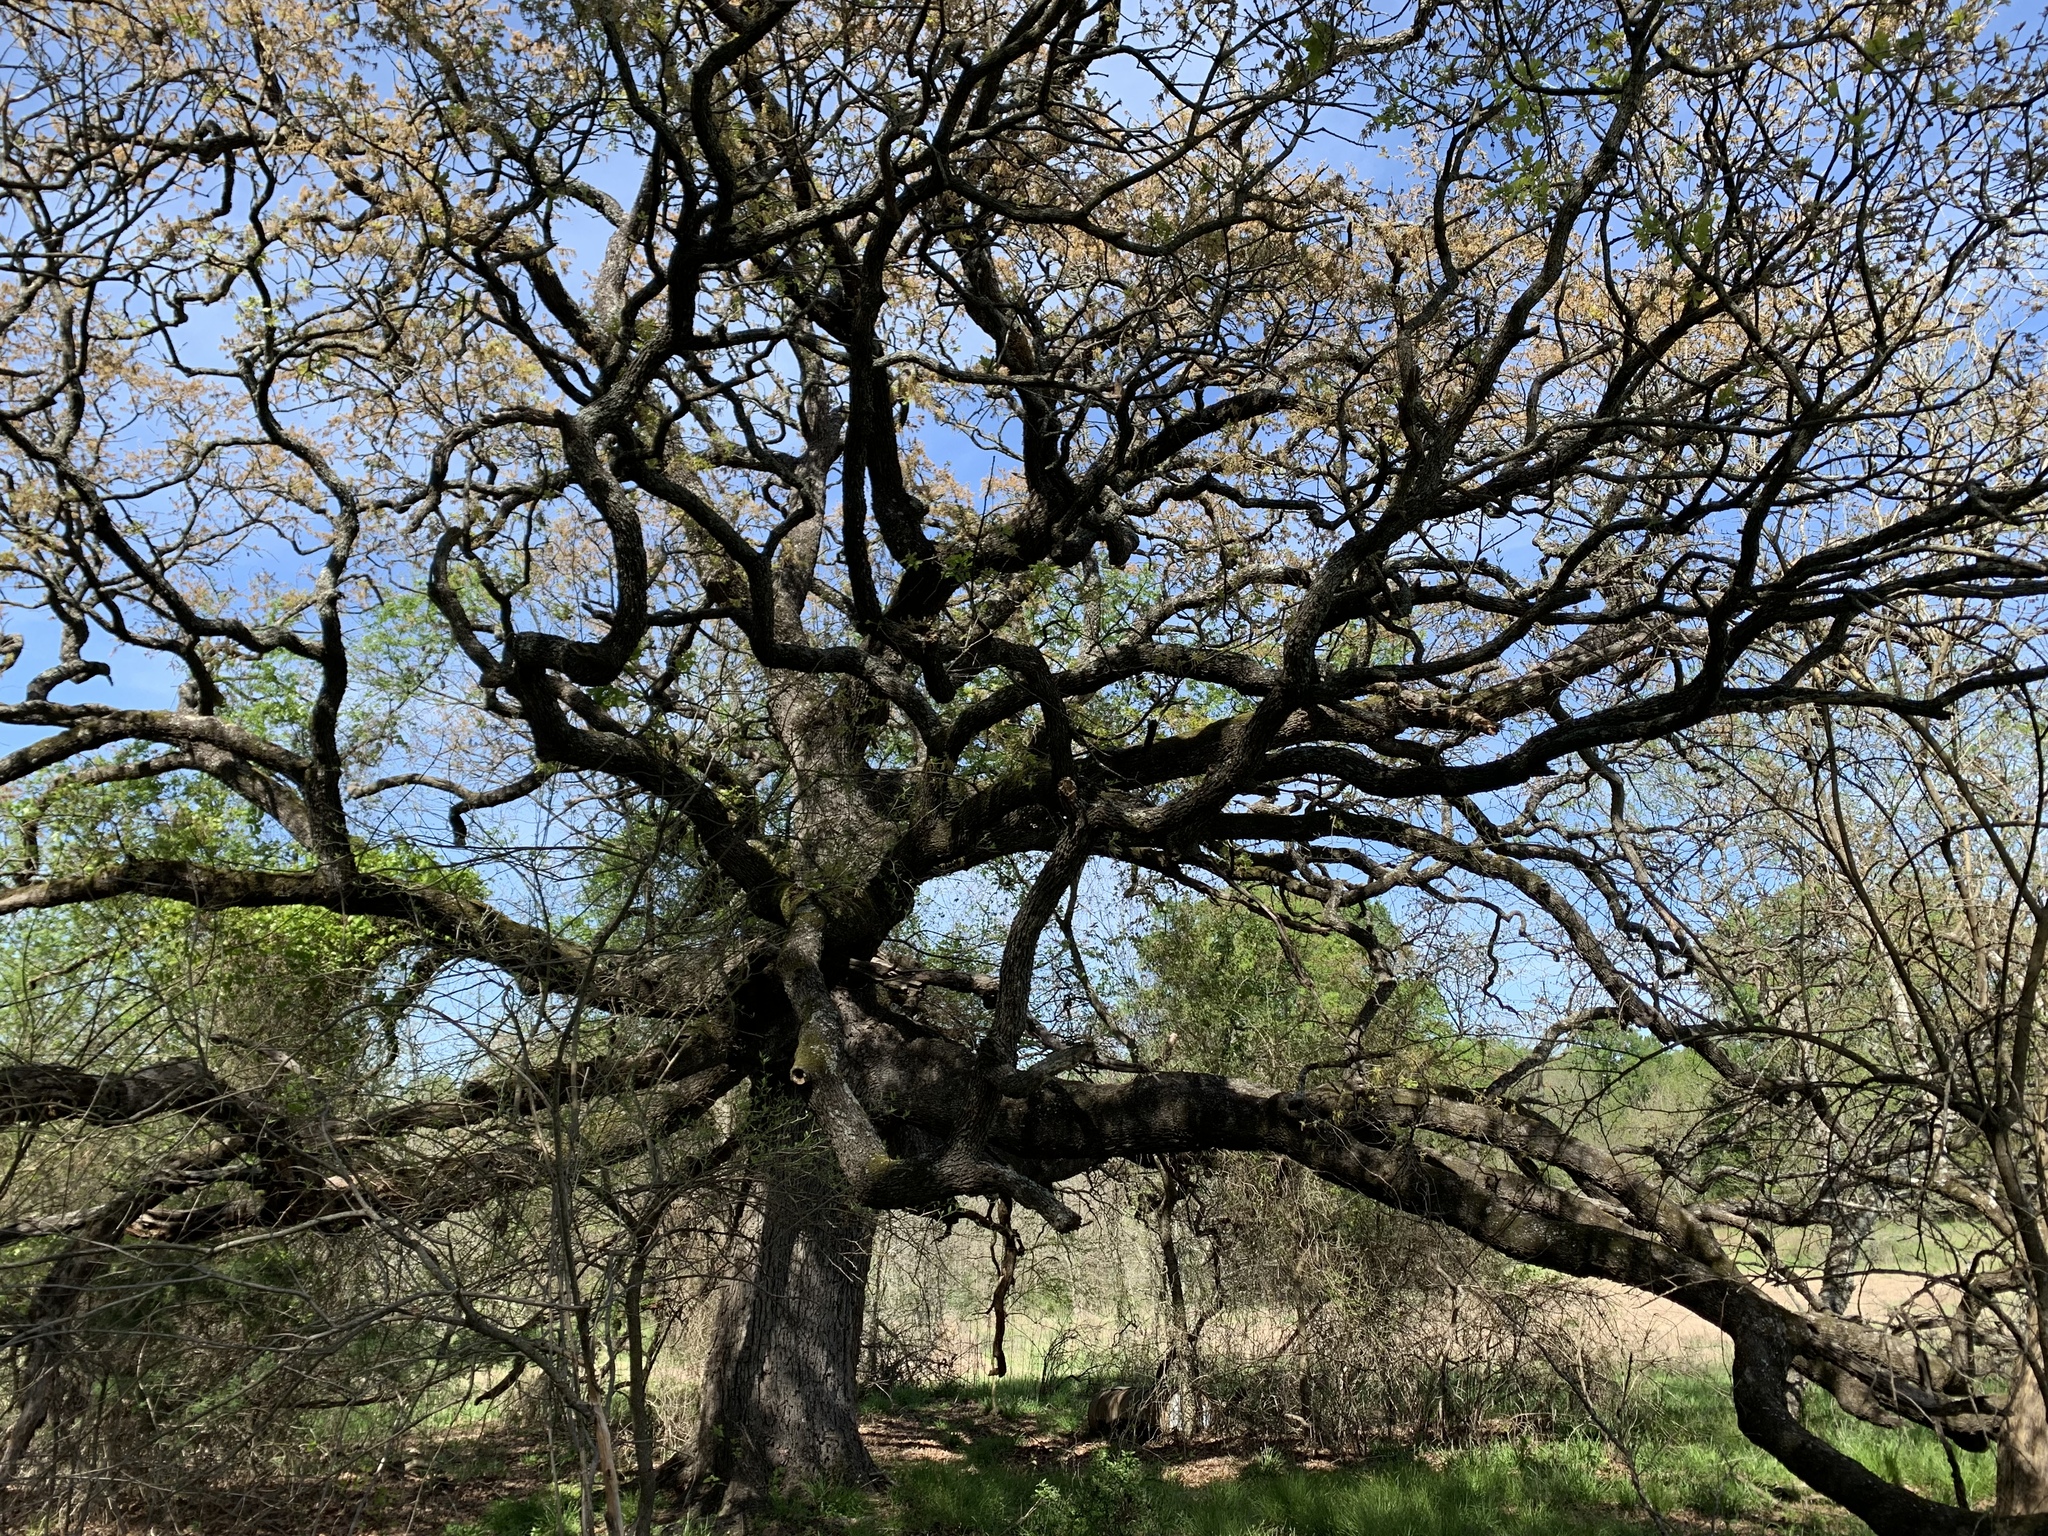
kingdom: Plantae
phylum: Tracheophyta
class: Magnoliopsida
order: Fagales
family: Fagaceae
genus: Quercus
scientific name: Quercus stellata
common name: Post oak
